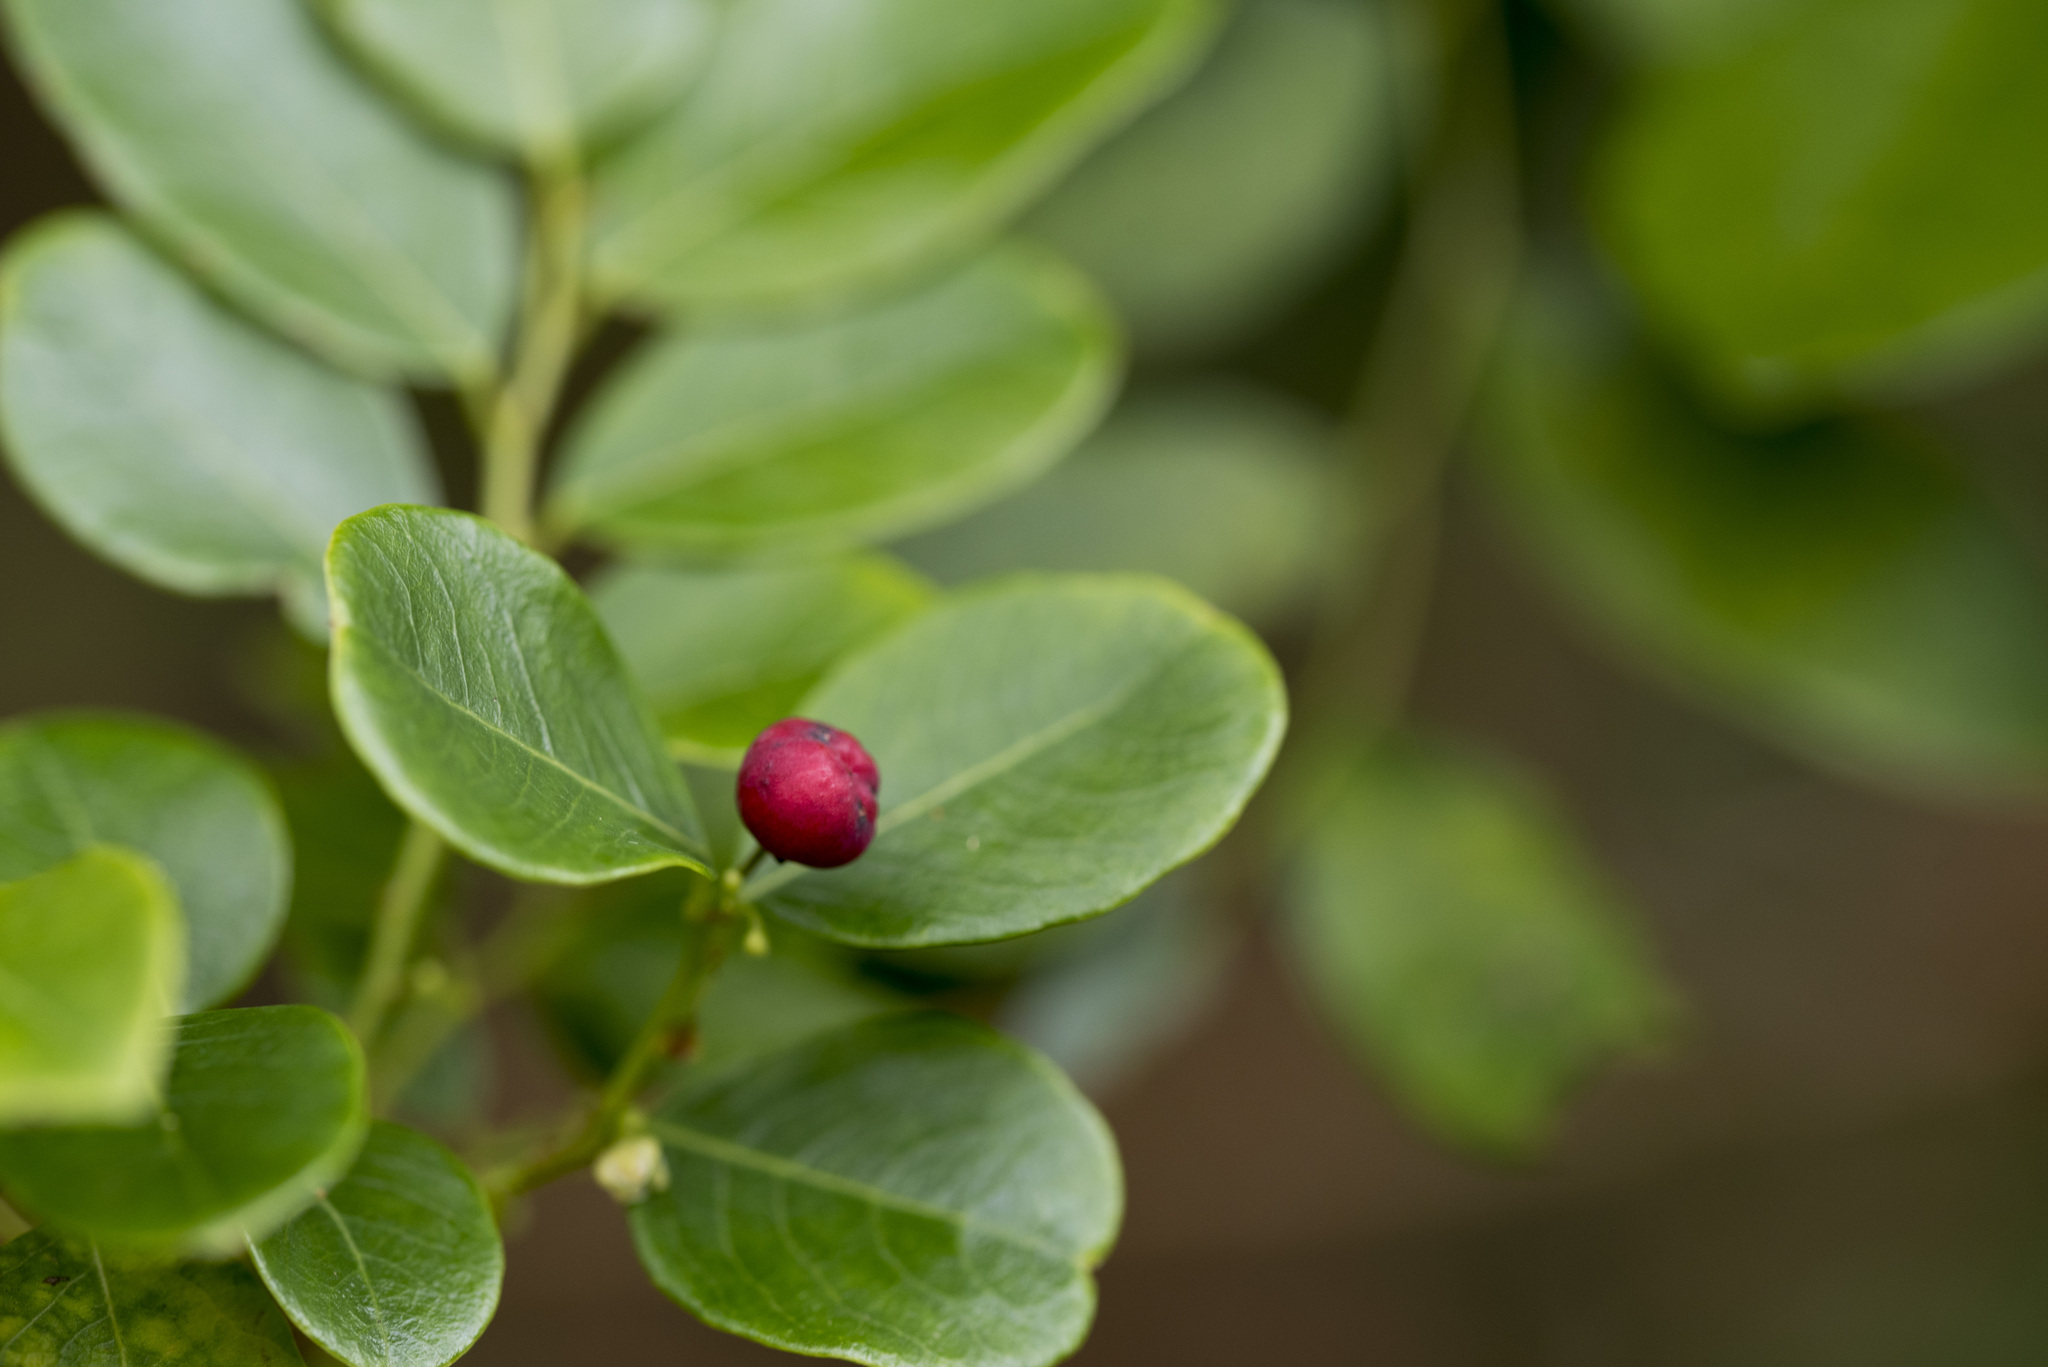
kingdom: Plantae
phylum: Tracheophyta
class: Magnoliopsida
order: Malpighiales
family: Phyllanthaceae
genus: Phyllanthus
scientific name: Phyllanthus reticulatus
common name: Potato bush
